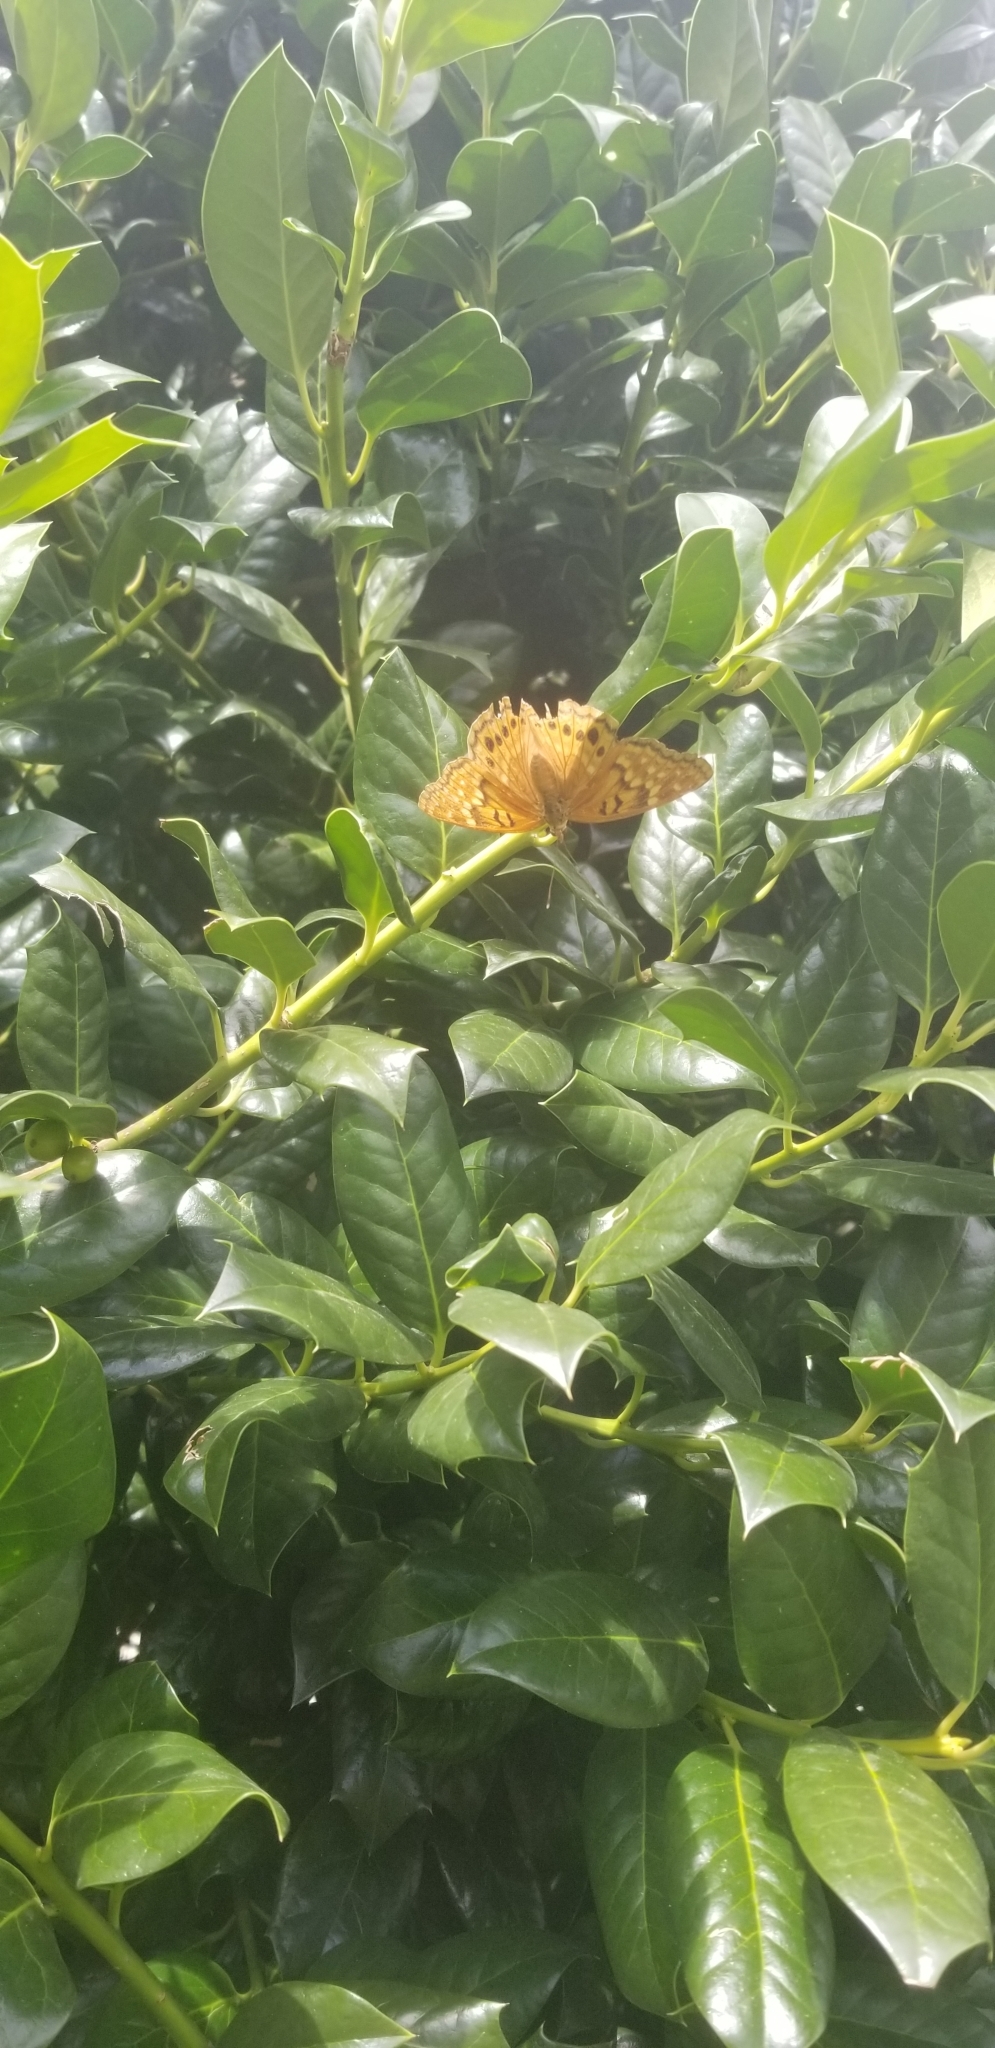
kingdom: Animalia
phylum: Arthropoda
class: Insecta
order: Lepidoptera
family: Nymphalidae
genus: Asterocampa
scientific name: Asterocampa clyton
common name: Tawny emperor
